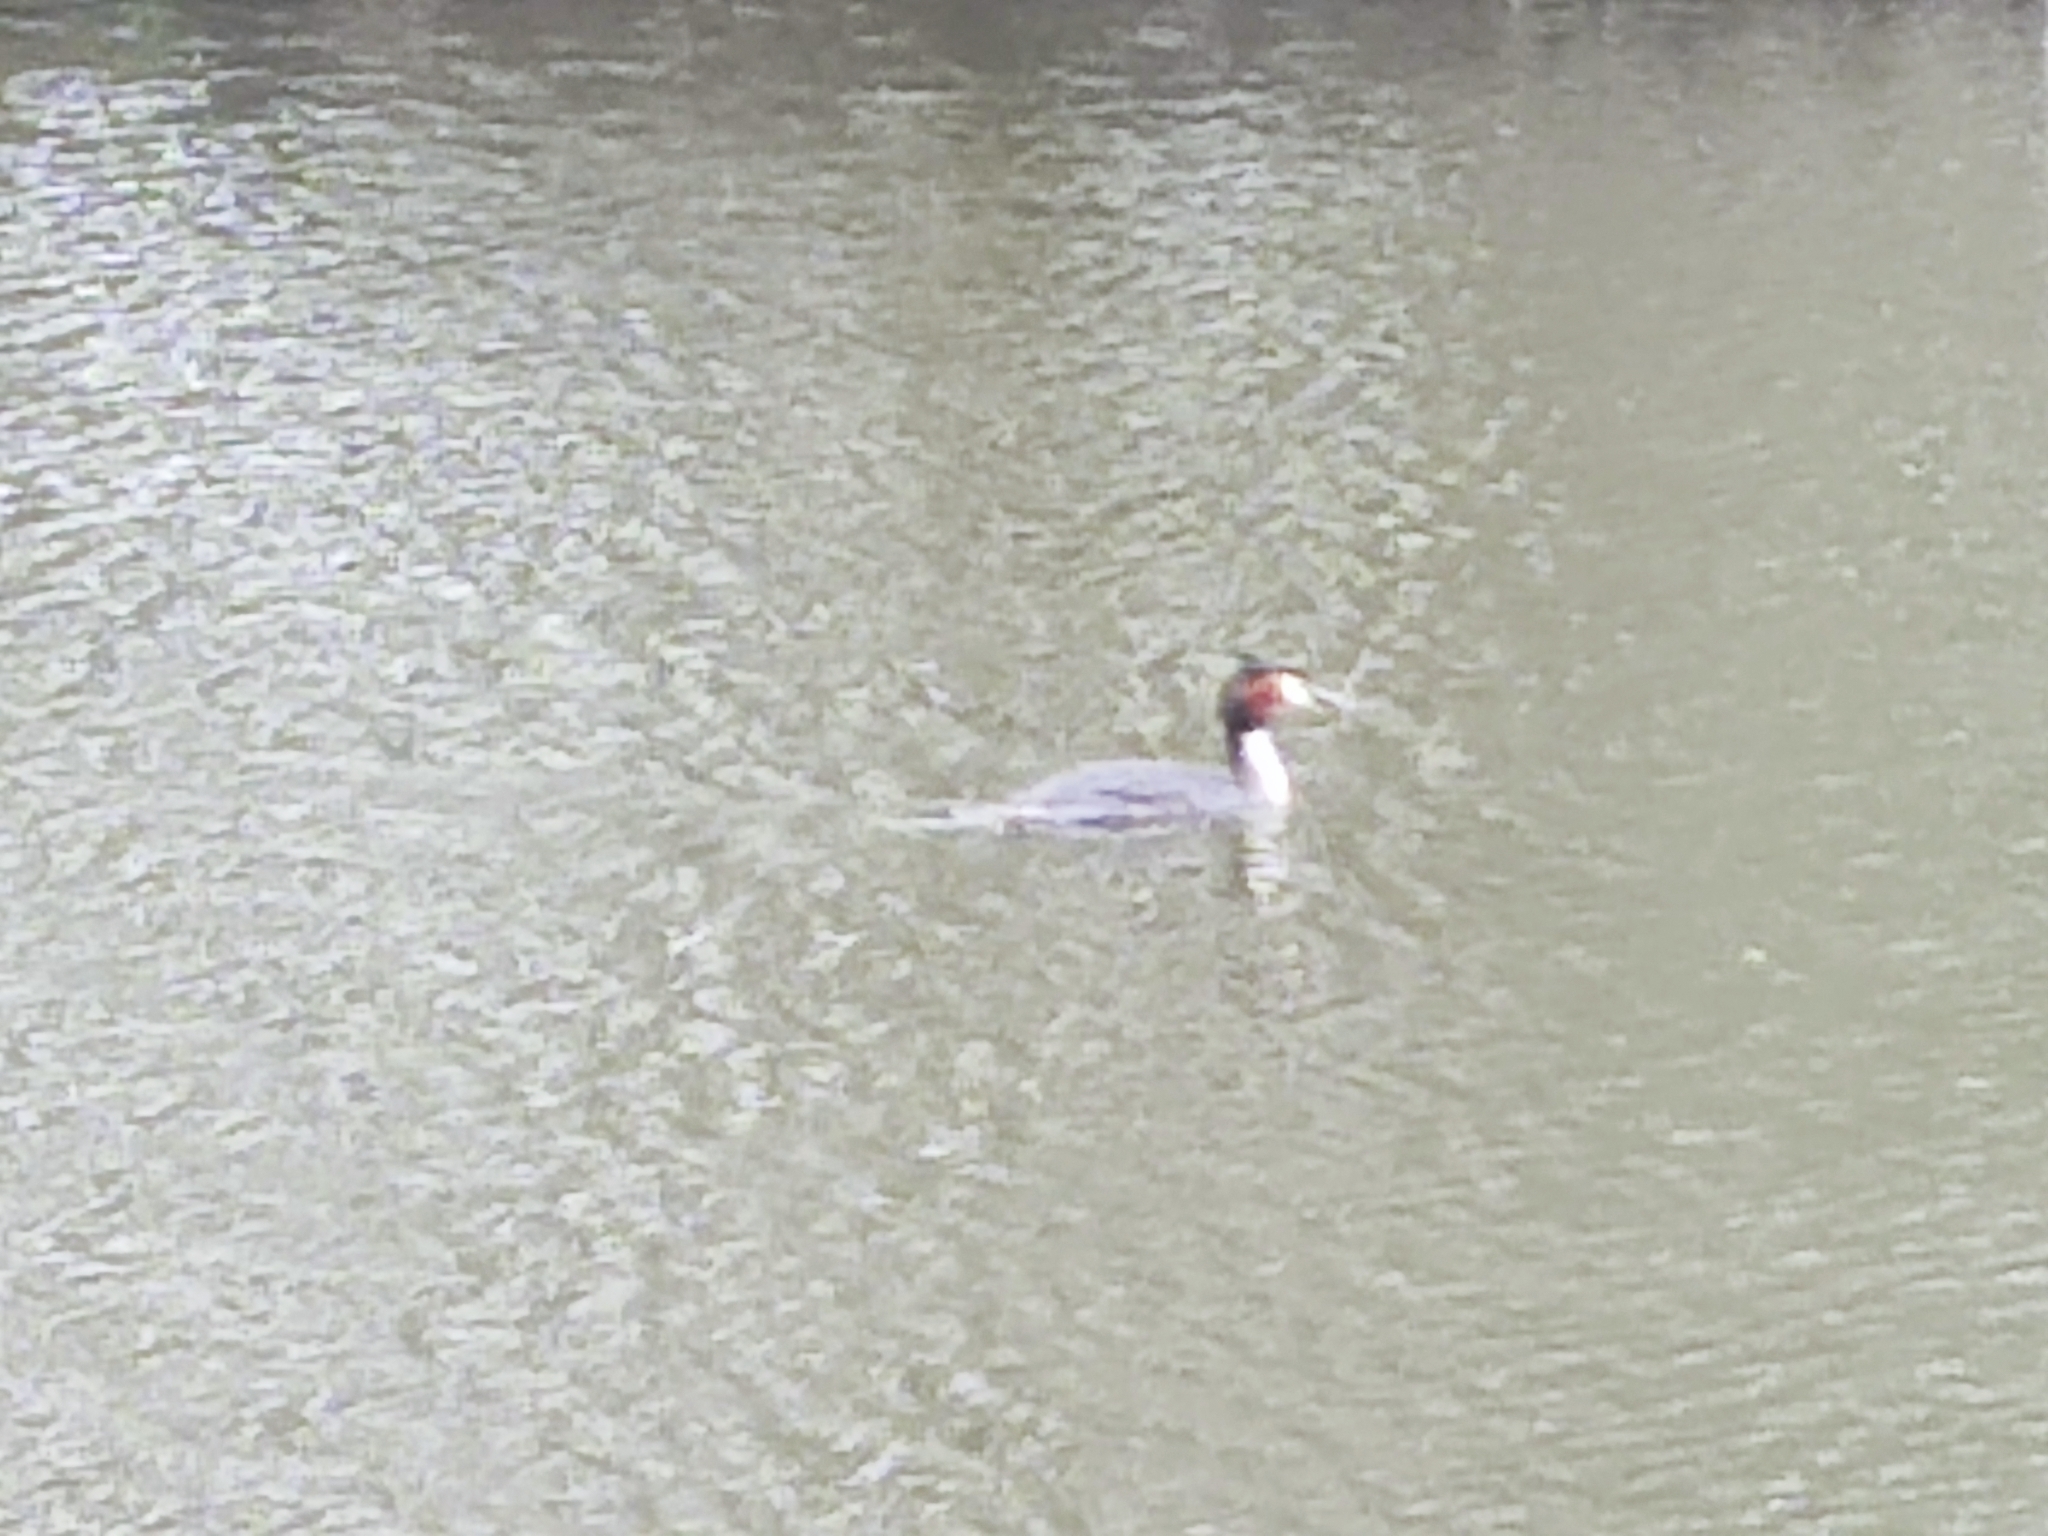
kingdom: Animalia
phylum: Chordata
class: Aves
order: Podicipediformes
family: Podicipedidae
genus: Podiceps
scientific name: Podiceps cristatus
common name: Great crested grebe
